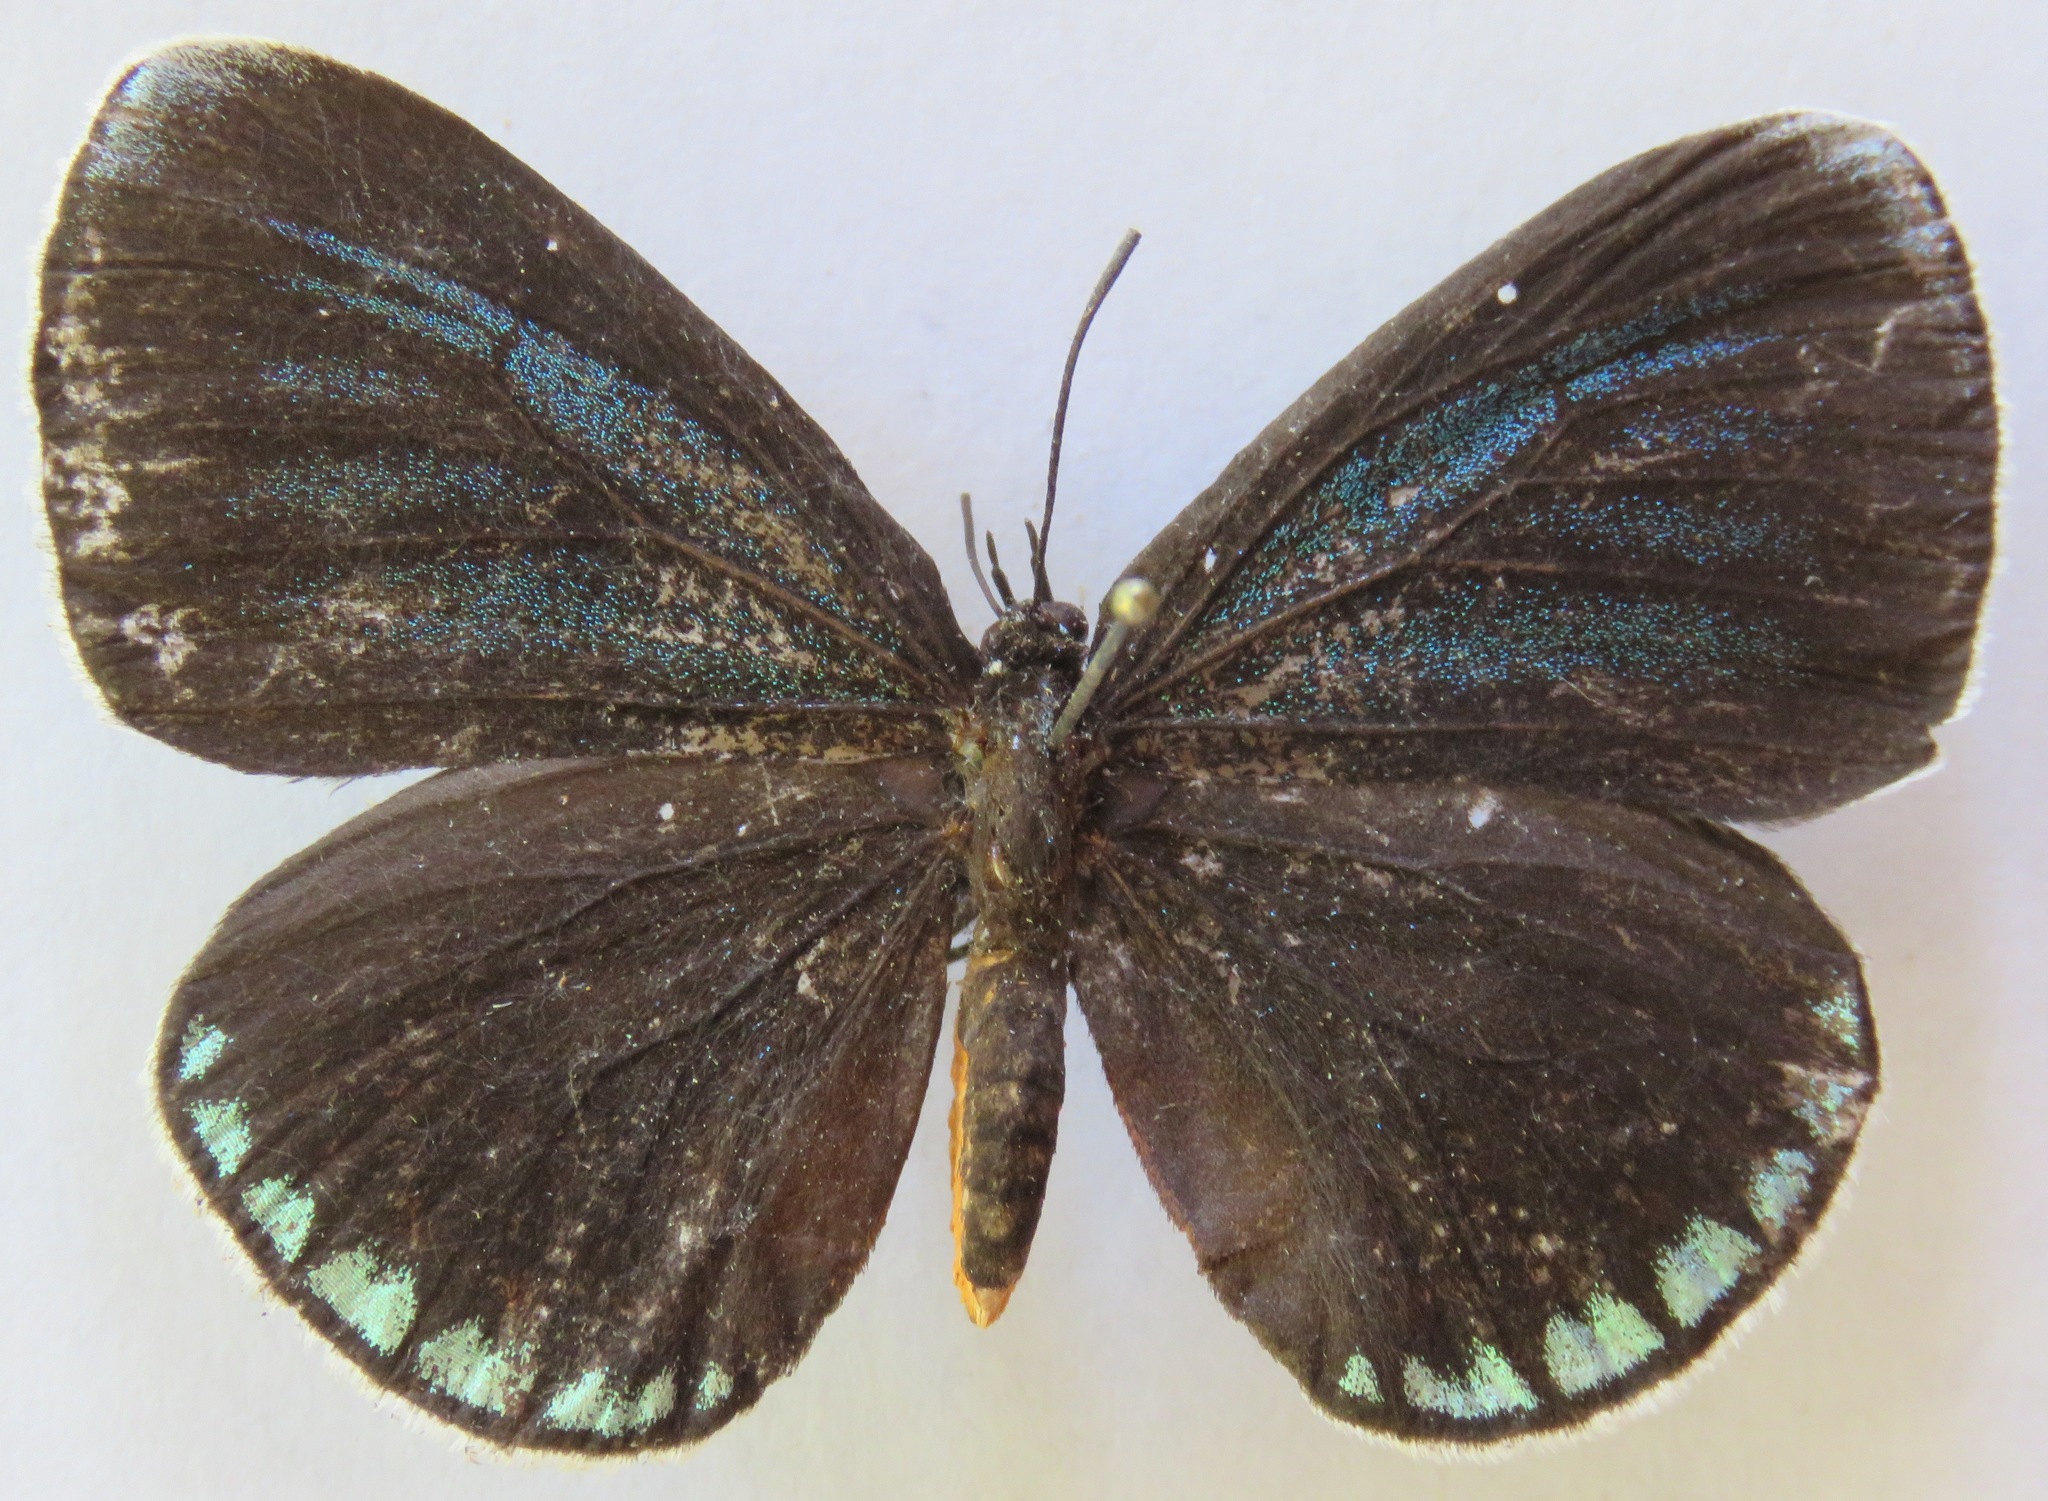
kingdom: Animalia
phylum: Arthropoda
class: Insecta
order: Lepidoptera
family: Lycaenidae
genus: Eumaeus
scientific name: Eumaeus godartii
